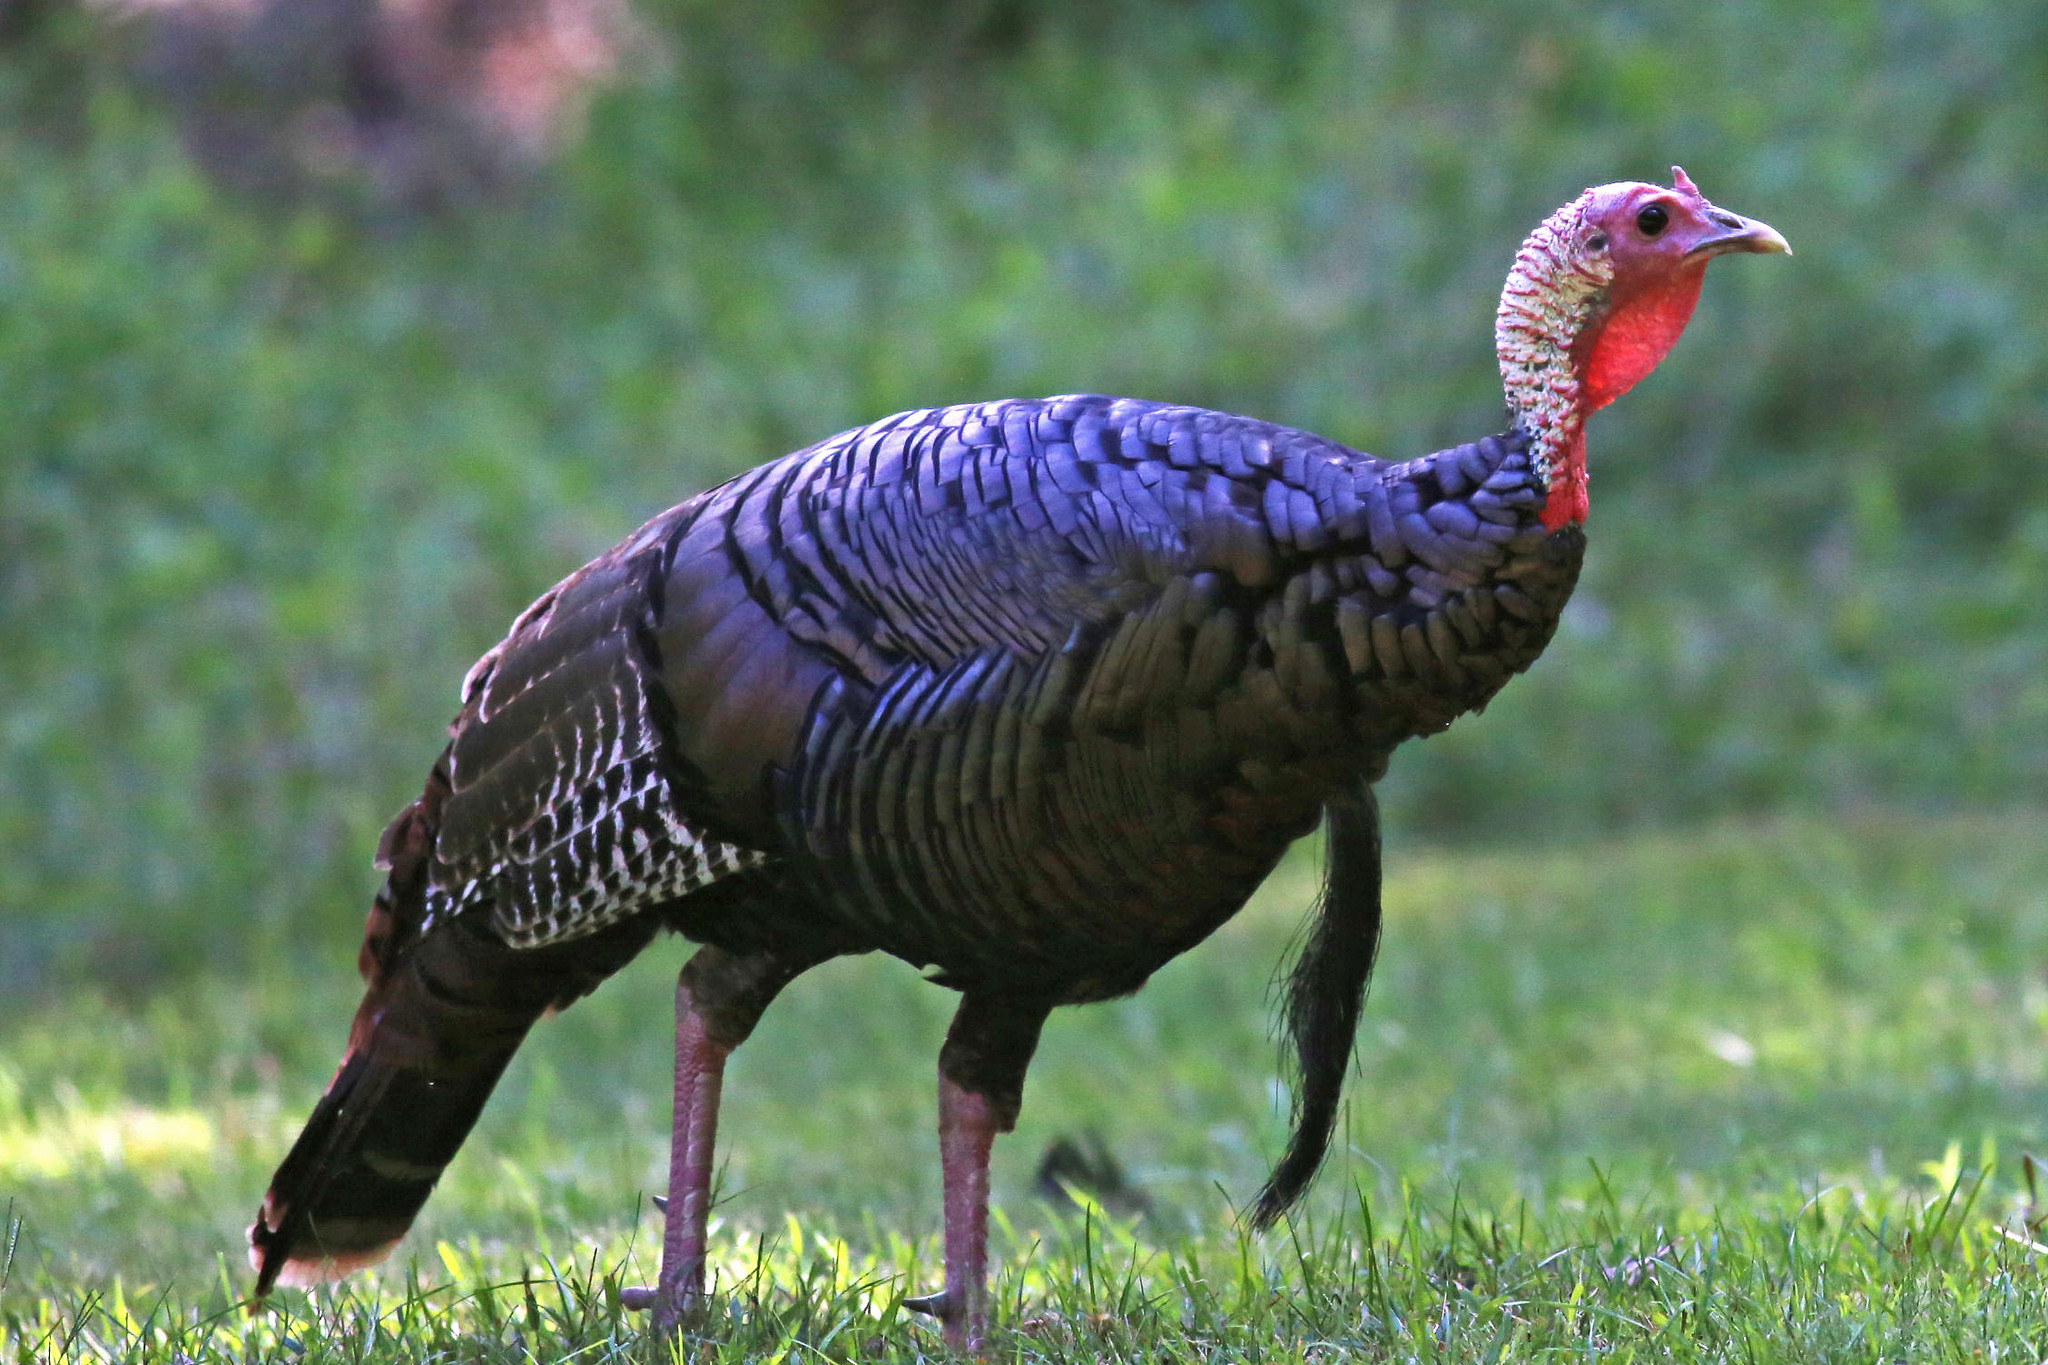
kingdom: Animalia
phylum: Chordata
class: Aves
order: Galliformes
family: Phasianidae
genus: Meleagris
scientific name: Meleagris gallopavo
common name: Wild turkey
